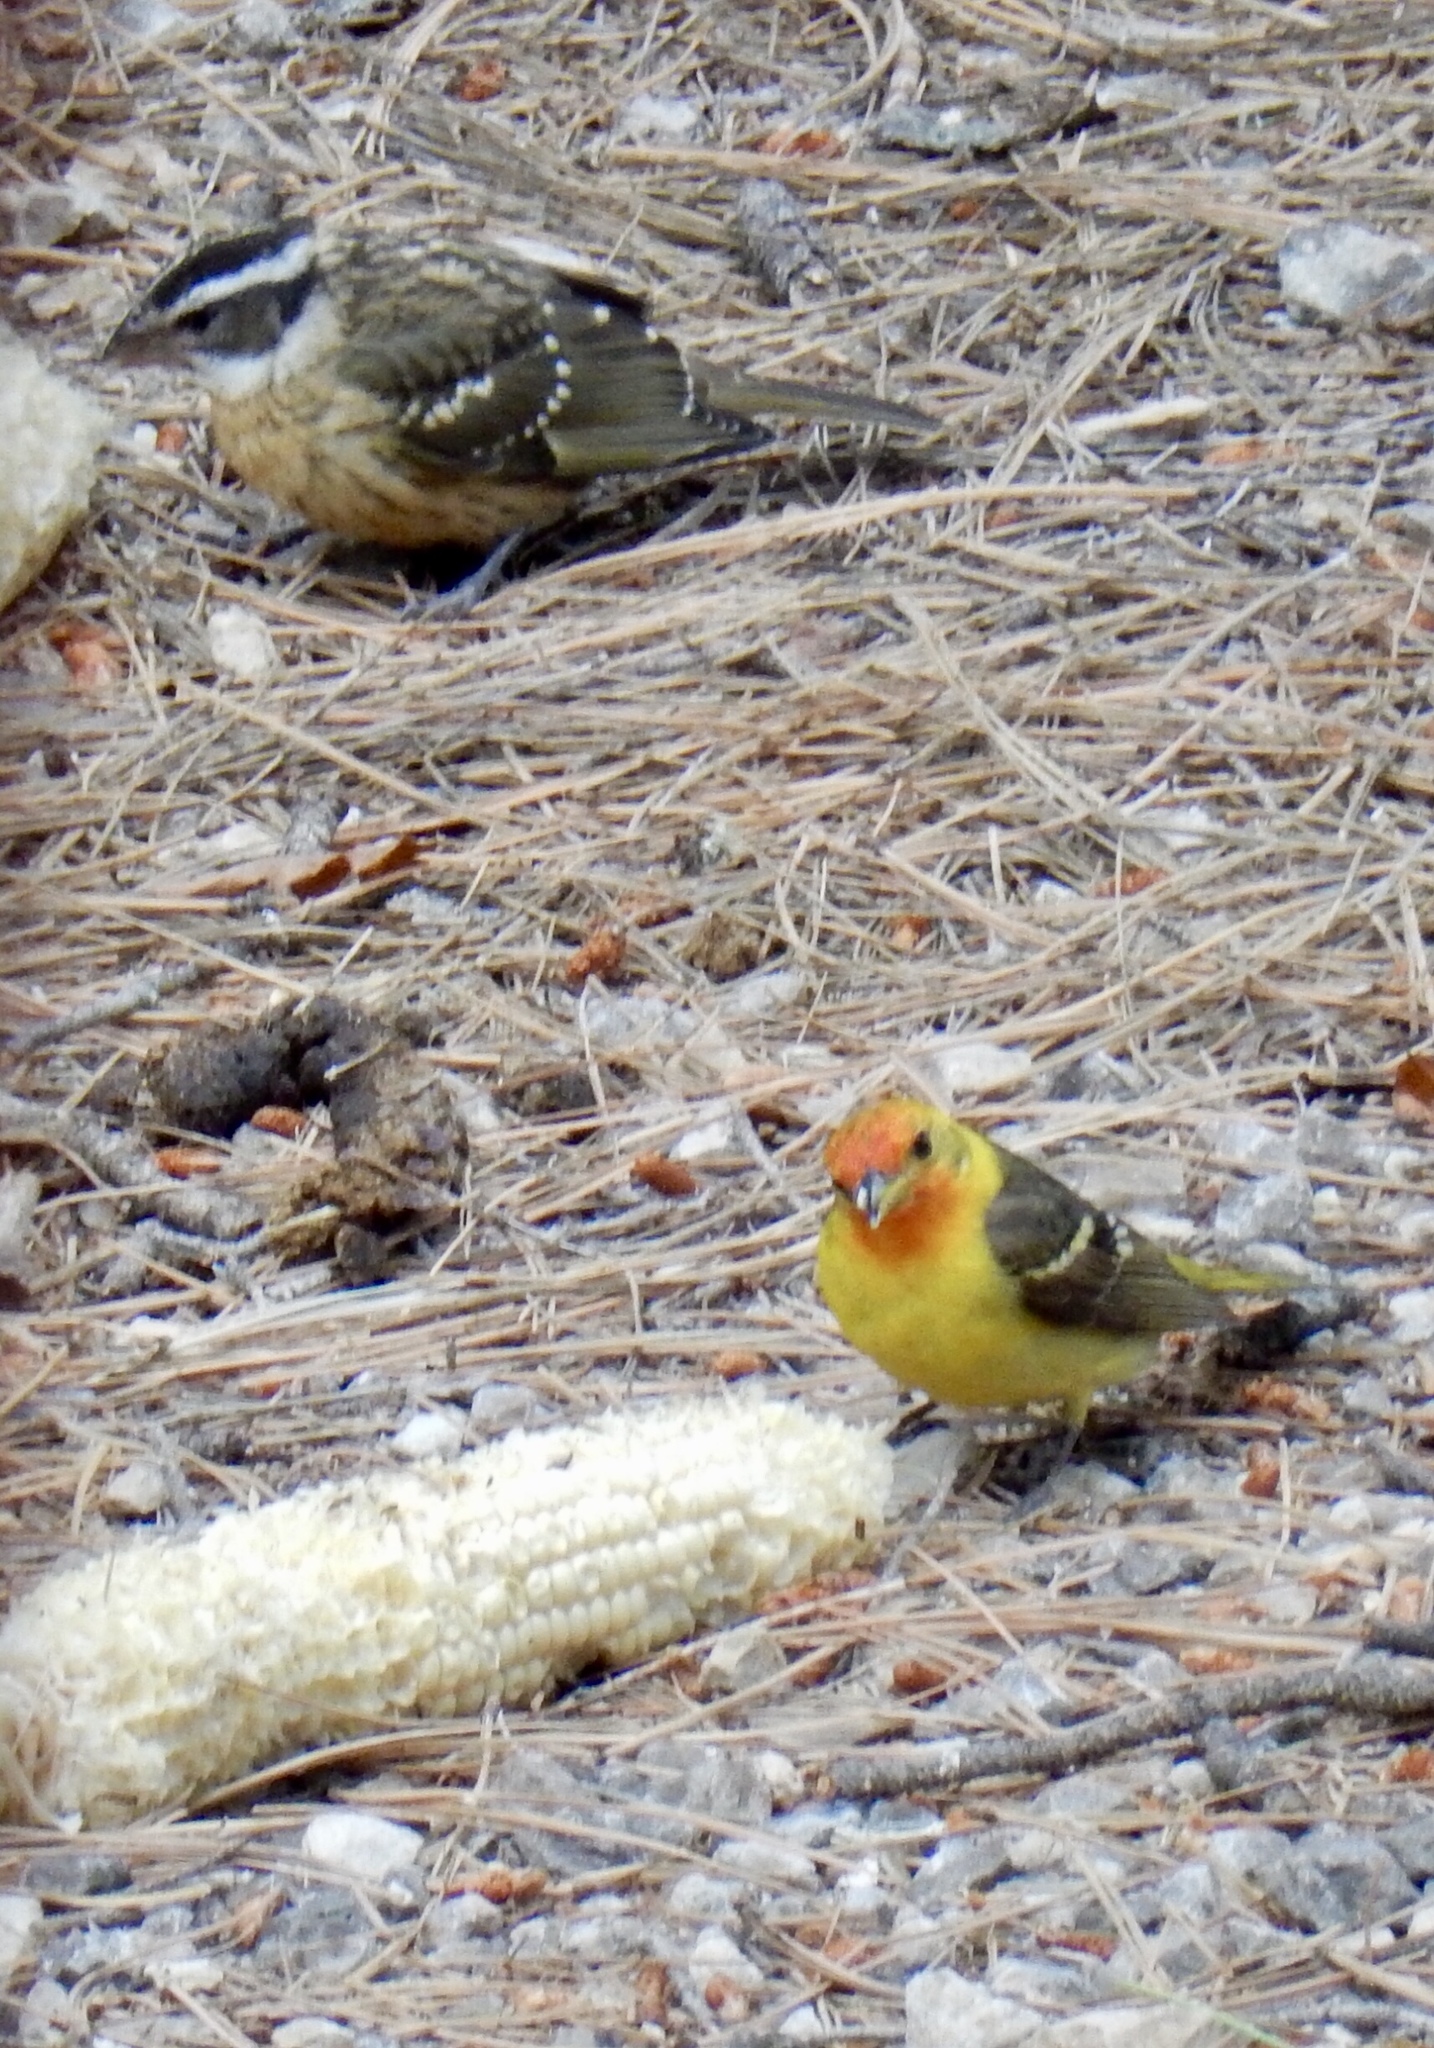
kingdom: Animalia
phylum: Chordata
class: Aves
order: Passeriformes
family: Cardinalidae
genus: Piranga
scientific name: Piranga ludoviciana
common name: Western tanager
